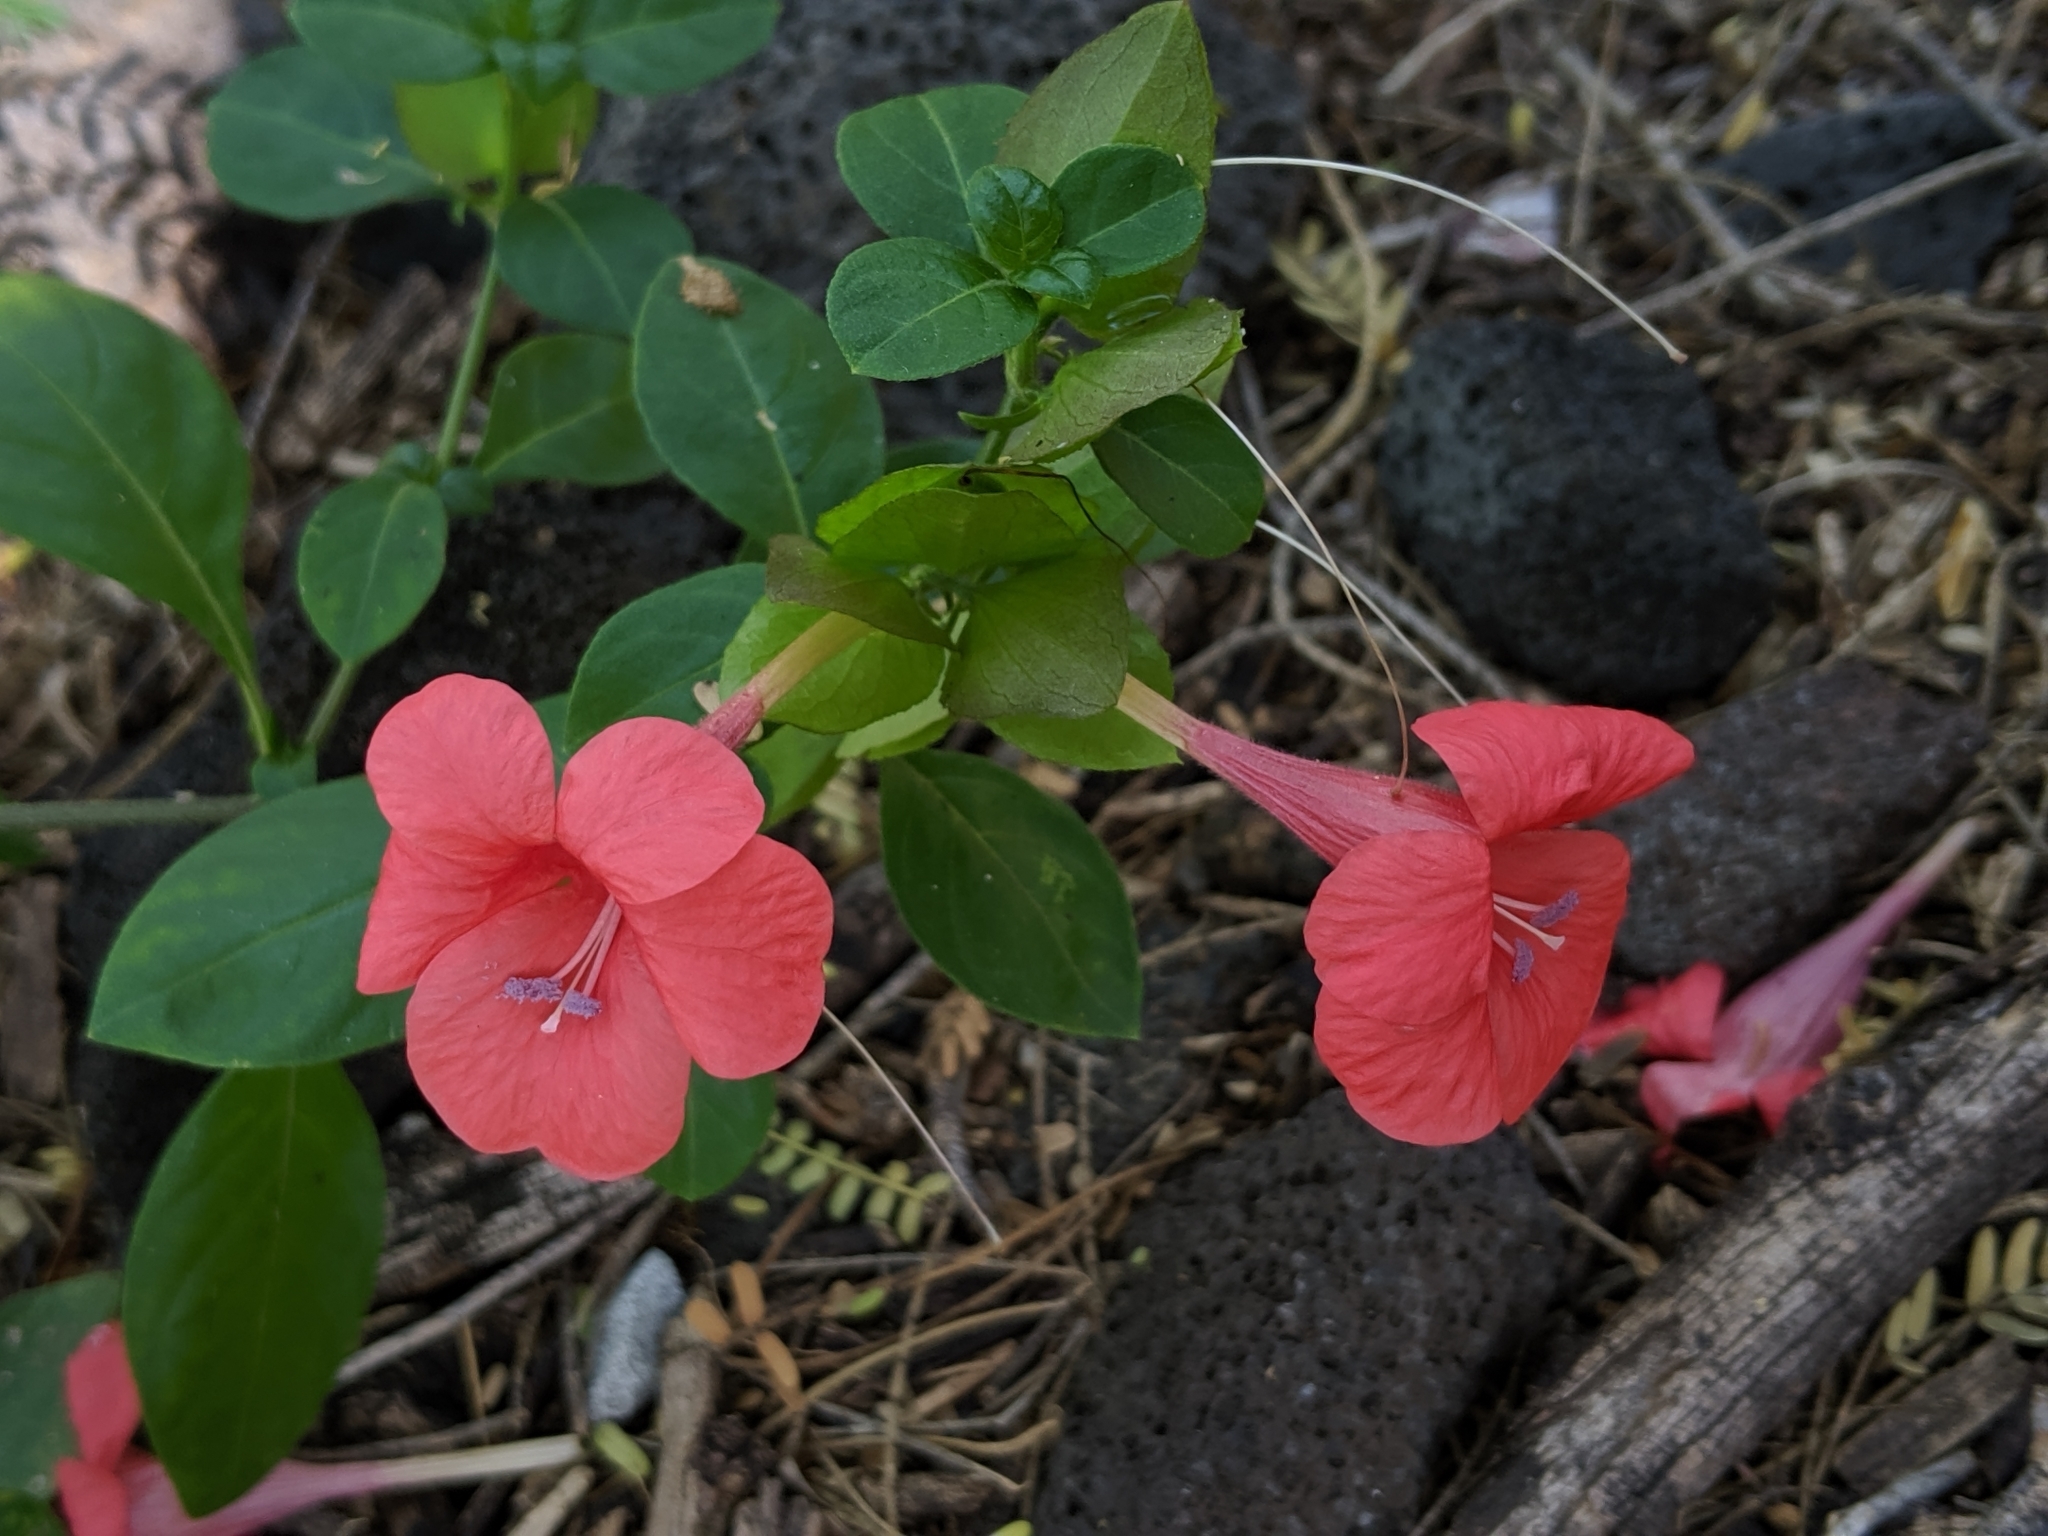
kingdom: Plantae
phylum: Tracheophyta
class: Magnoliopsida
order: Lamiales
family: Acanthaceae
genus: Barleria
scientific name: Barleria repens
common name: Pink-ruellia
